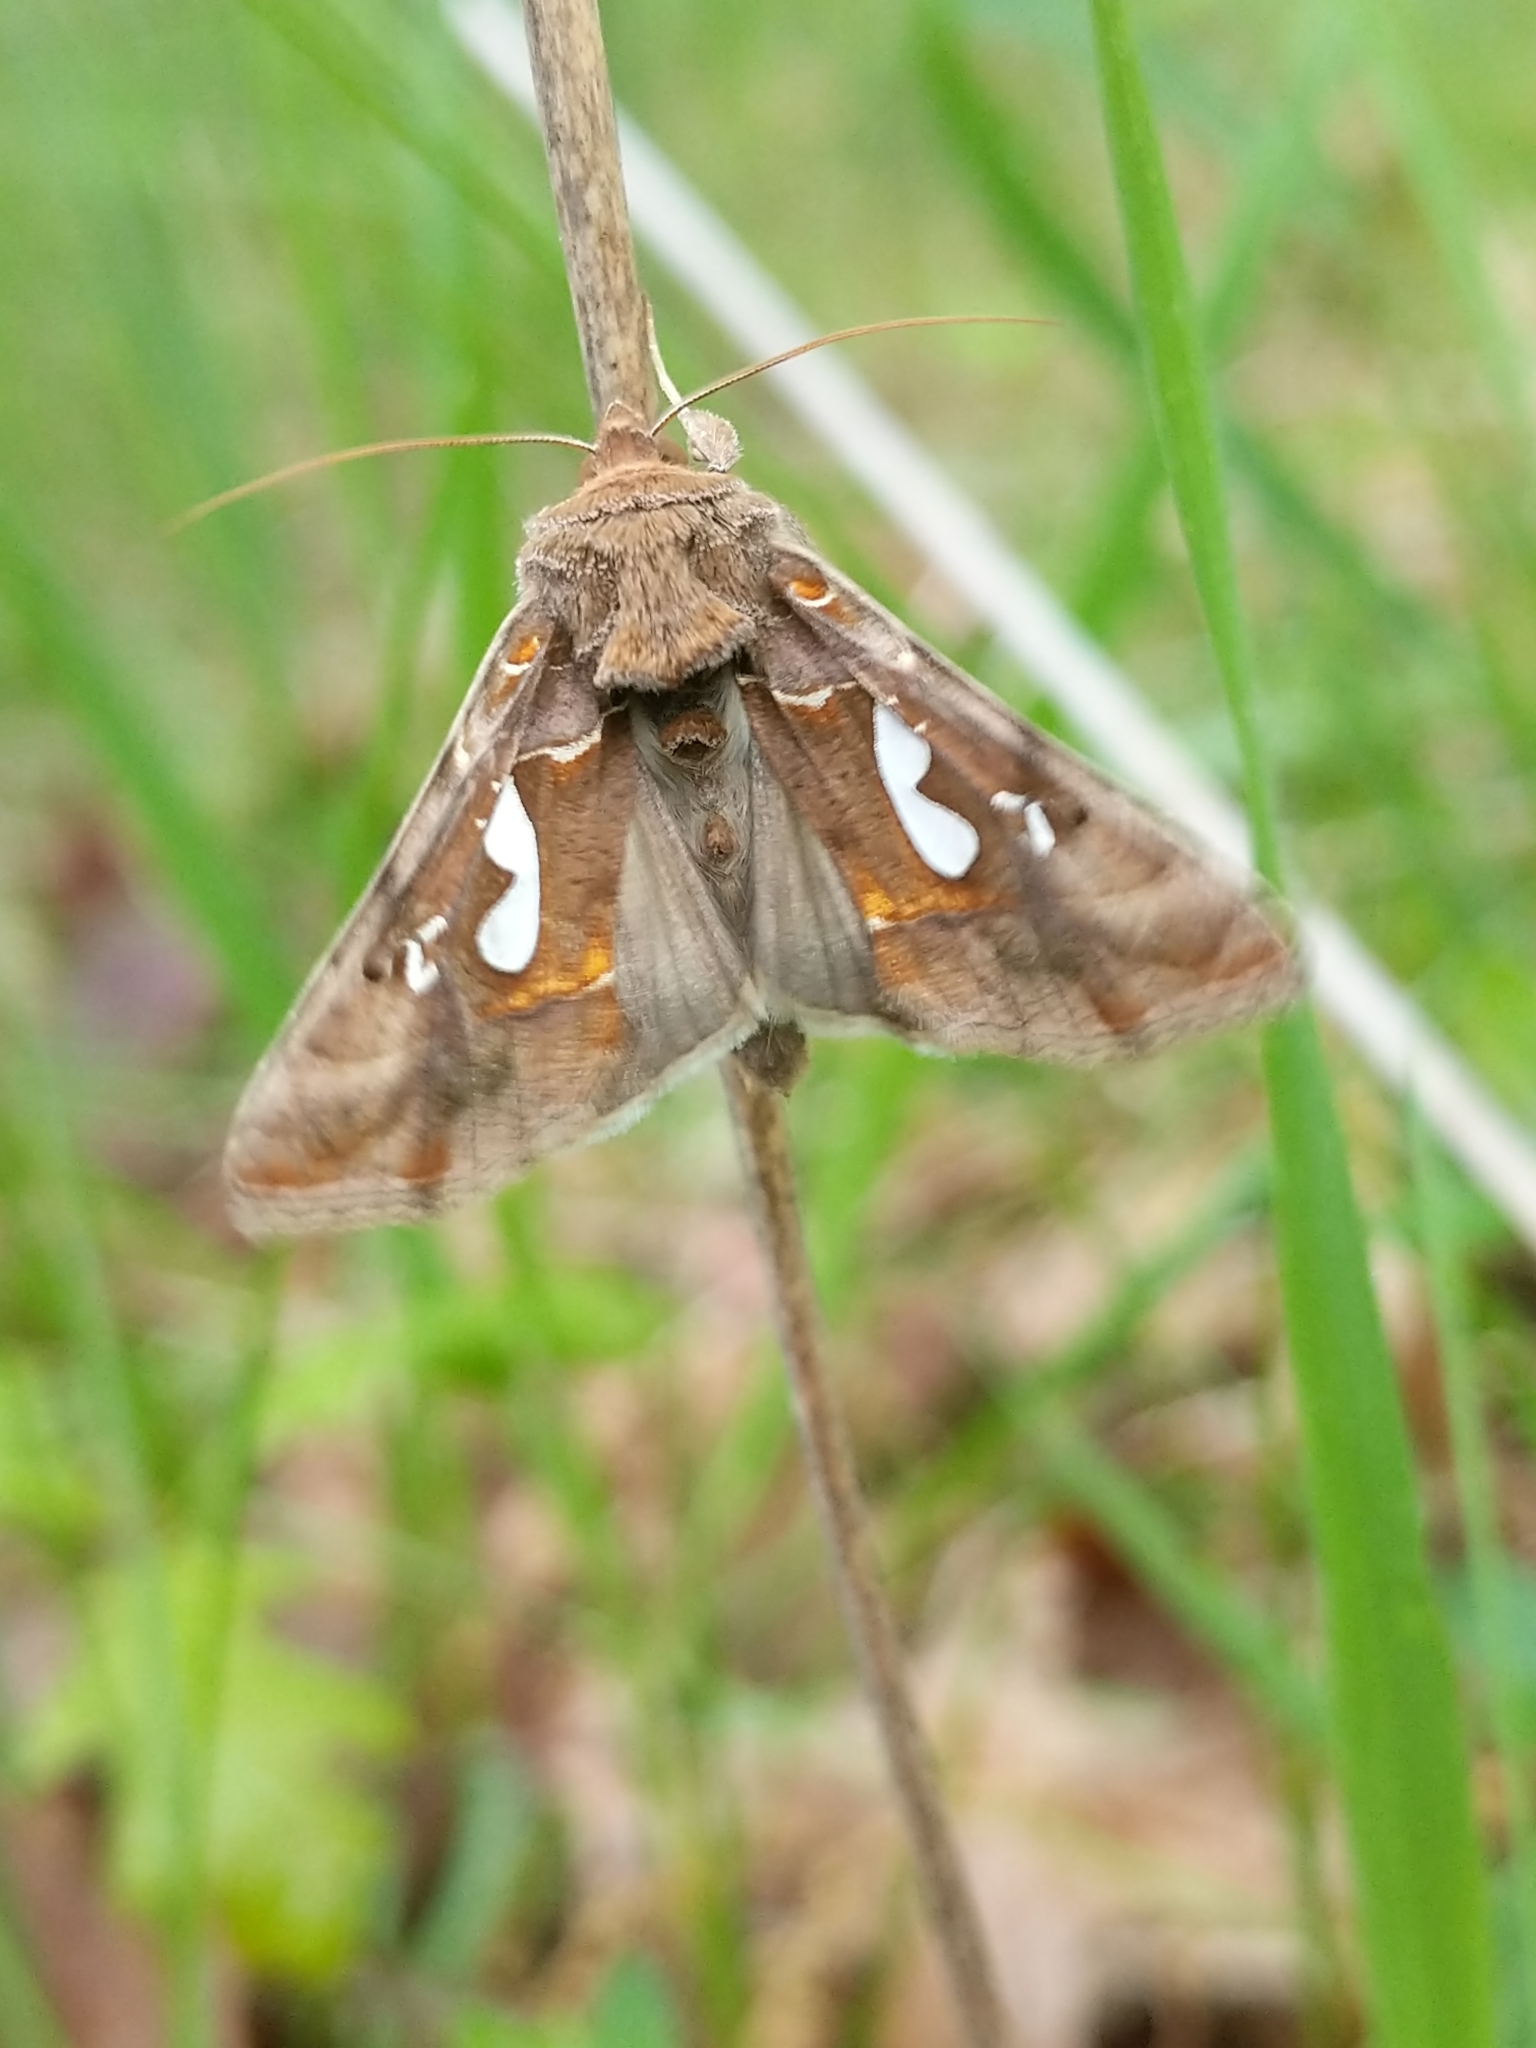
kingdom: Animalia
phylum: Arthropoda
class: Insecta
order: Lepidoptera
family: Noctuidae
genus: Megalographa
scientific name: Megalographa biloba
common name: Cutworm
